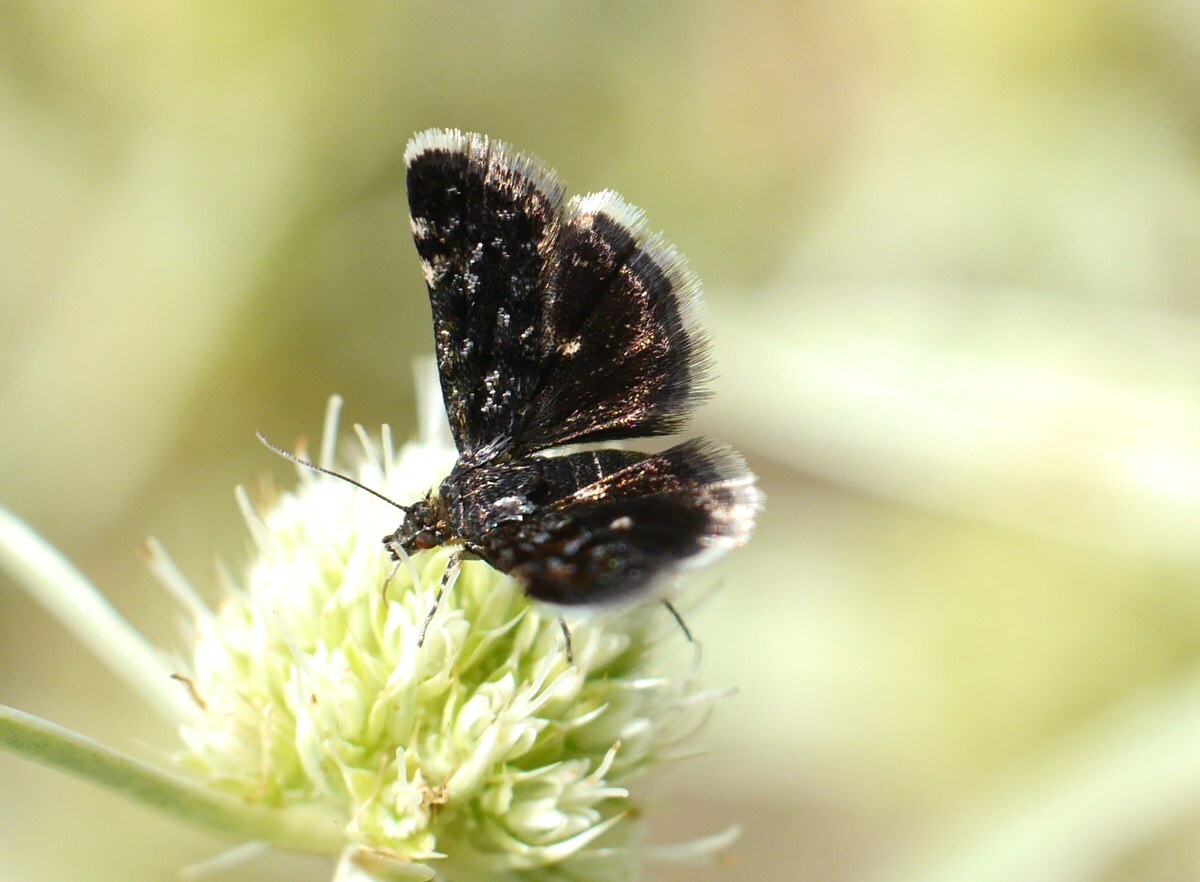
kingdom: Animalia
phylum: Arthropoda
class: Insecta
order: Lepidoptera
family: Crambidae
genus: Heliothela
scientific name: Heliothela wulfeniana
